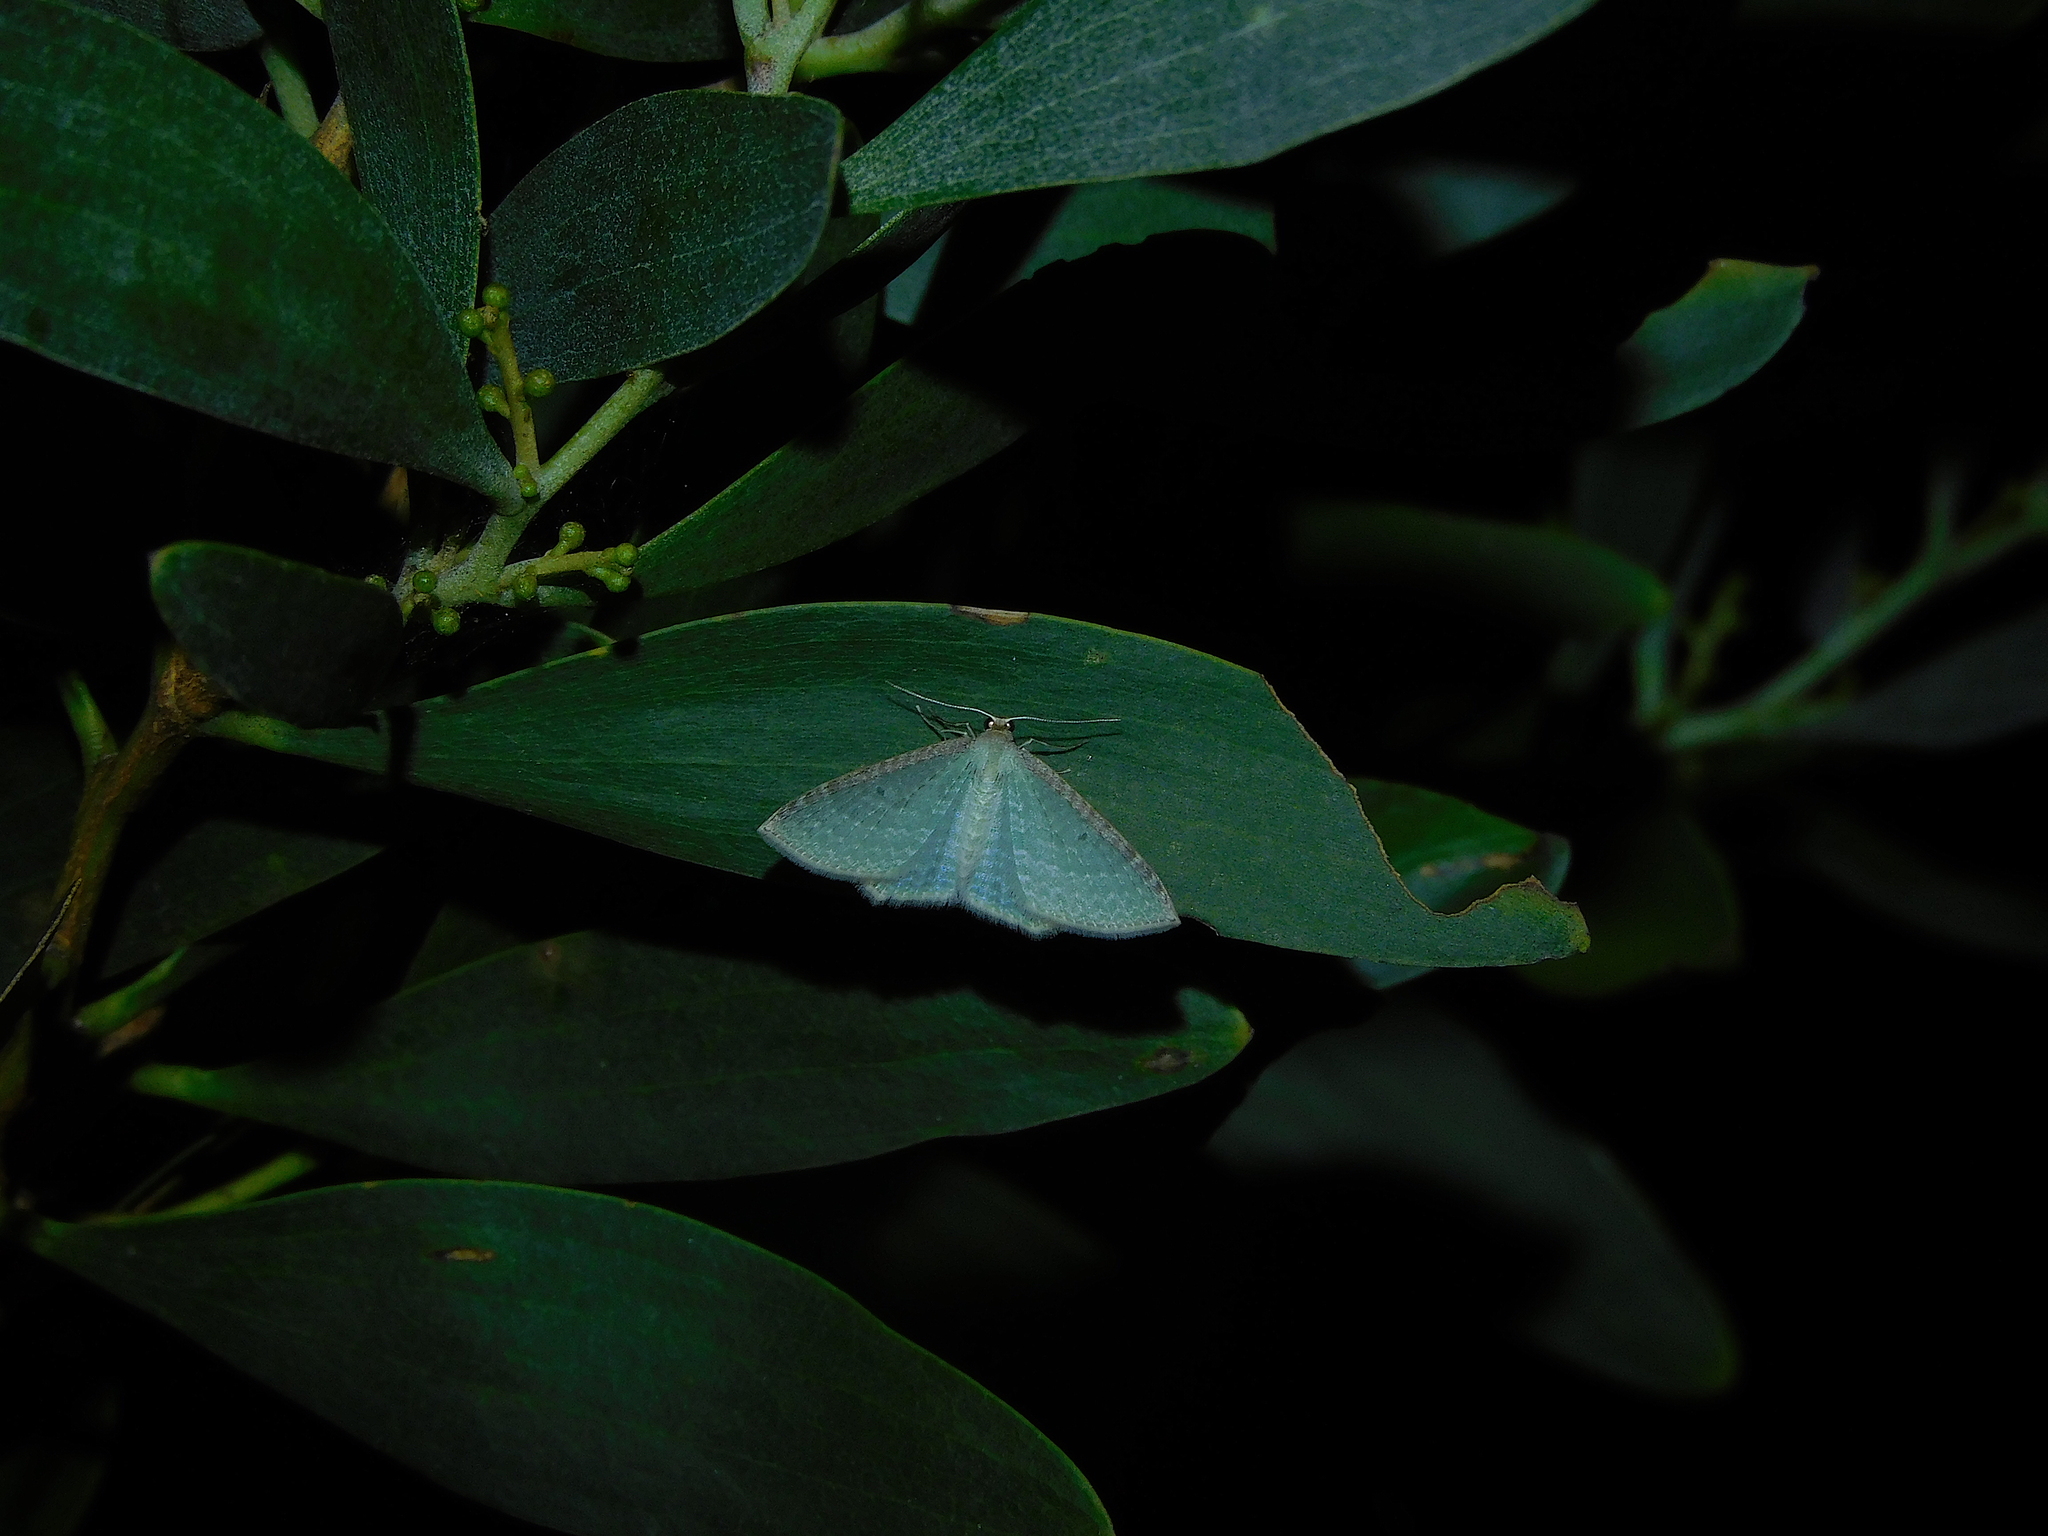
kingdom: Animalia
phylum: Arthropoda
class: Insecta
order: Lepidoptera
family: Geometridae
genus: Poecilasthena
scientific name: Poecilasthena pulchraria
